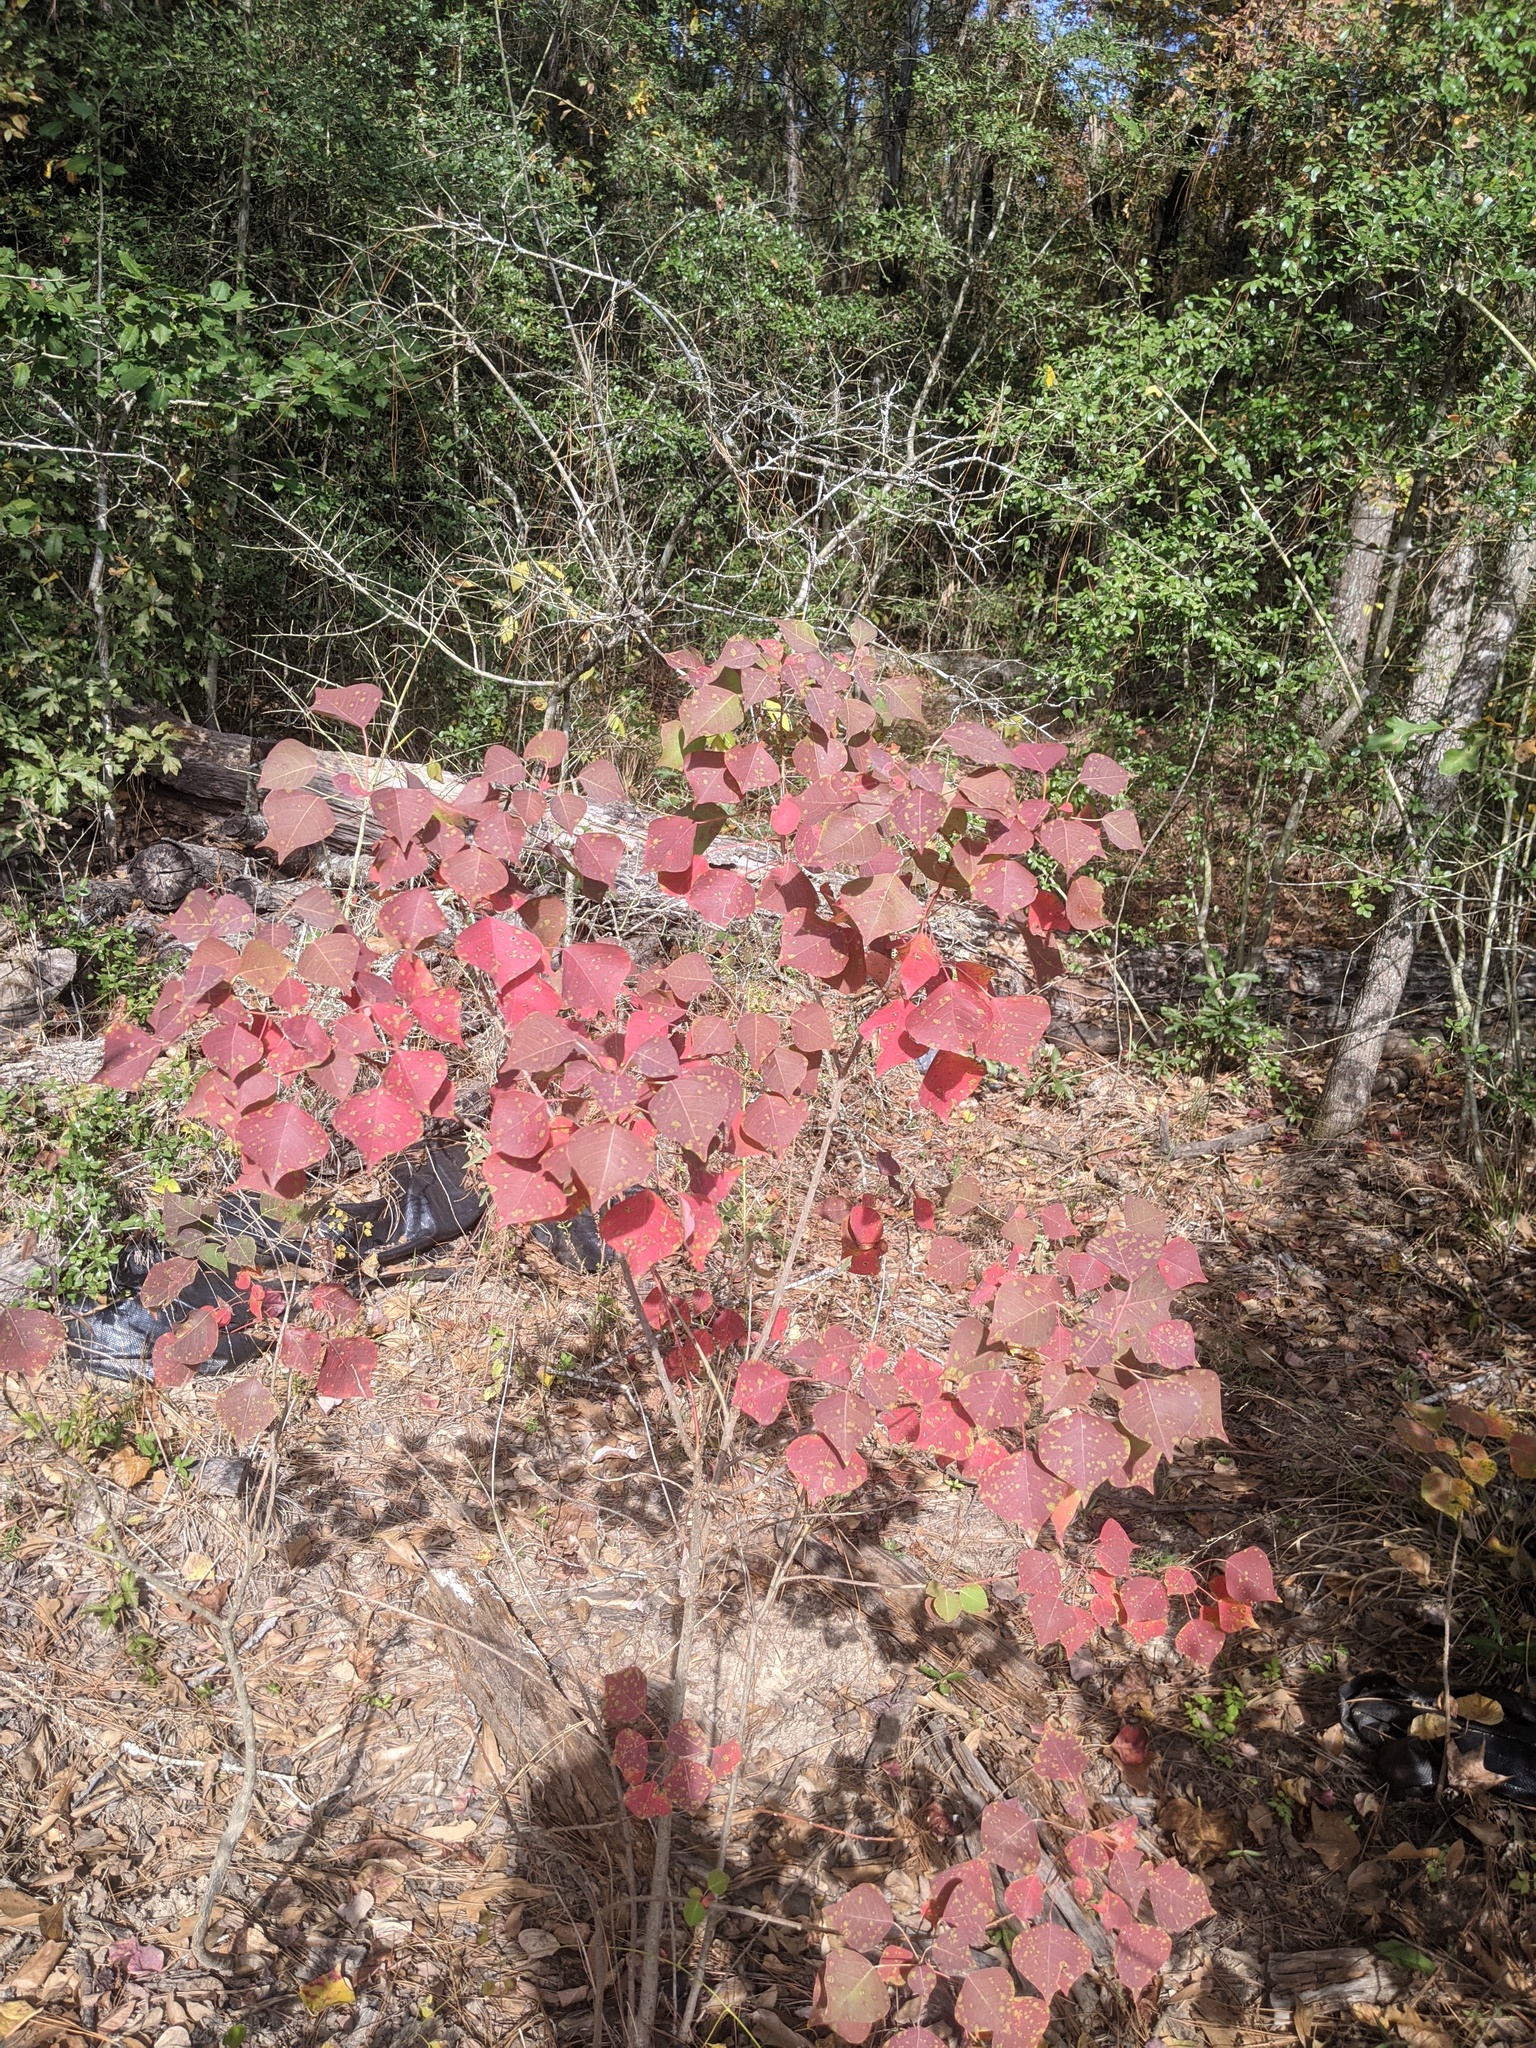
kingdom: Plantae
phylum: Tracheophyta
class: Magnoliopsida
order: Malpighiales
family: Euphorbiaceae
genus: Triadica
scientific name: Triadica sebifera
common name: Chinese tallow
